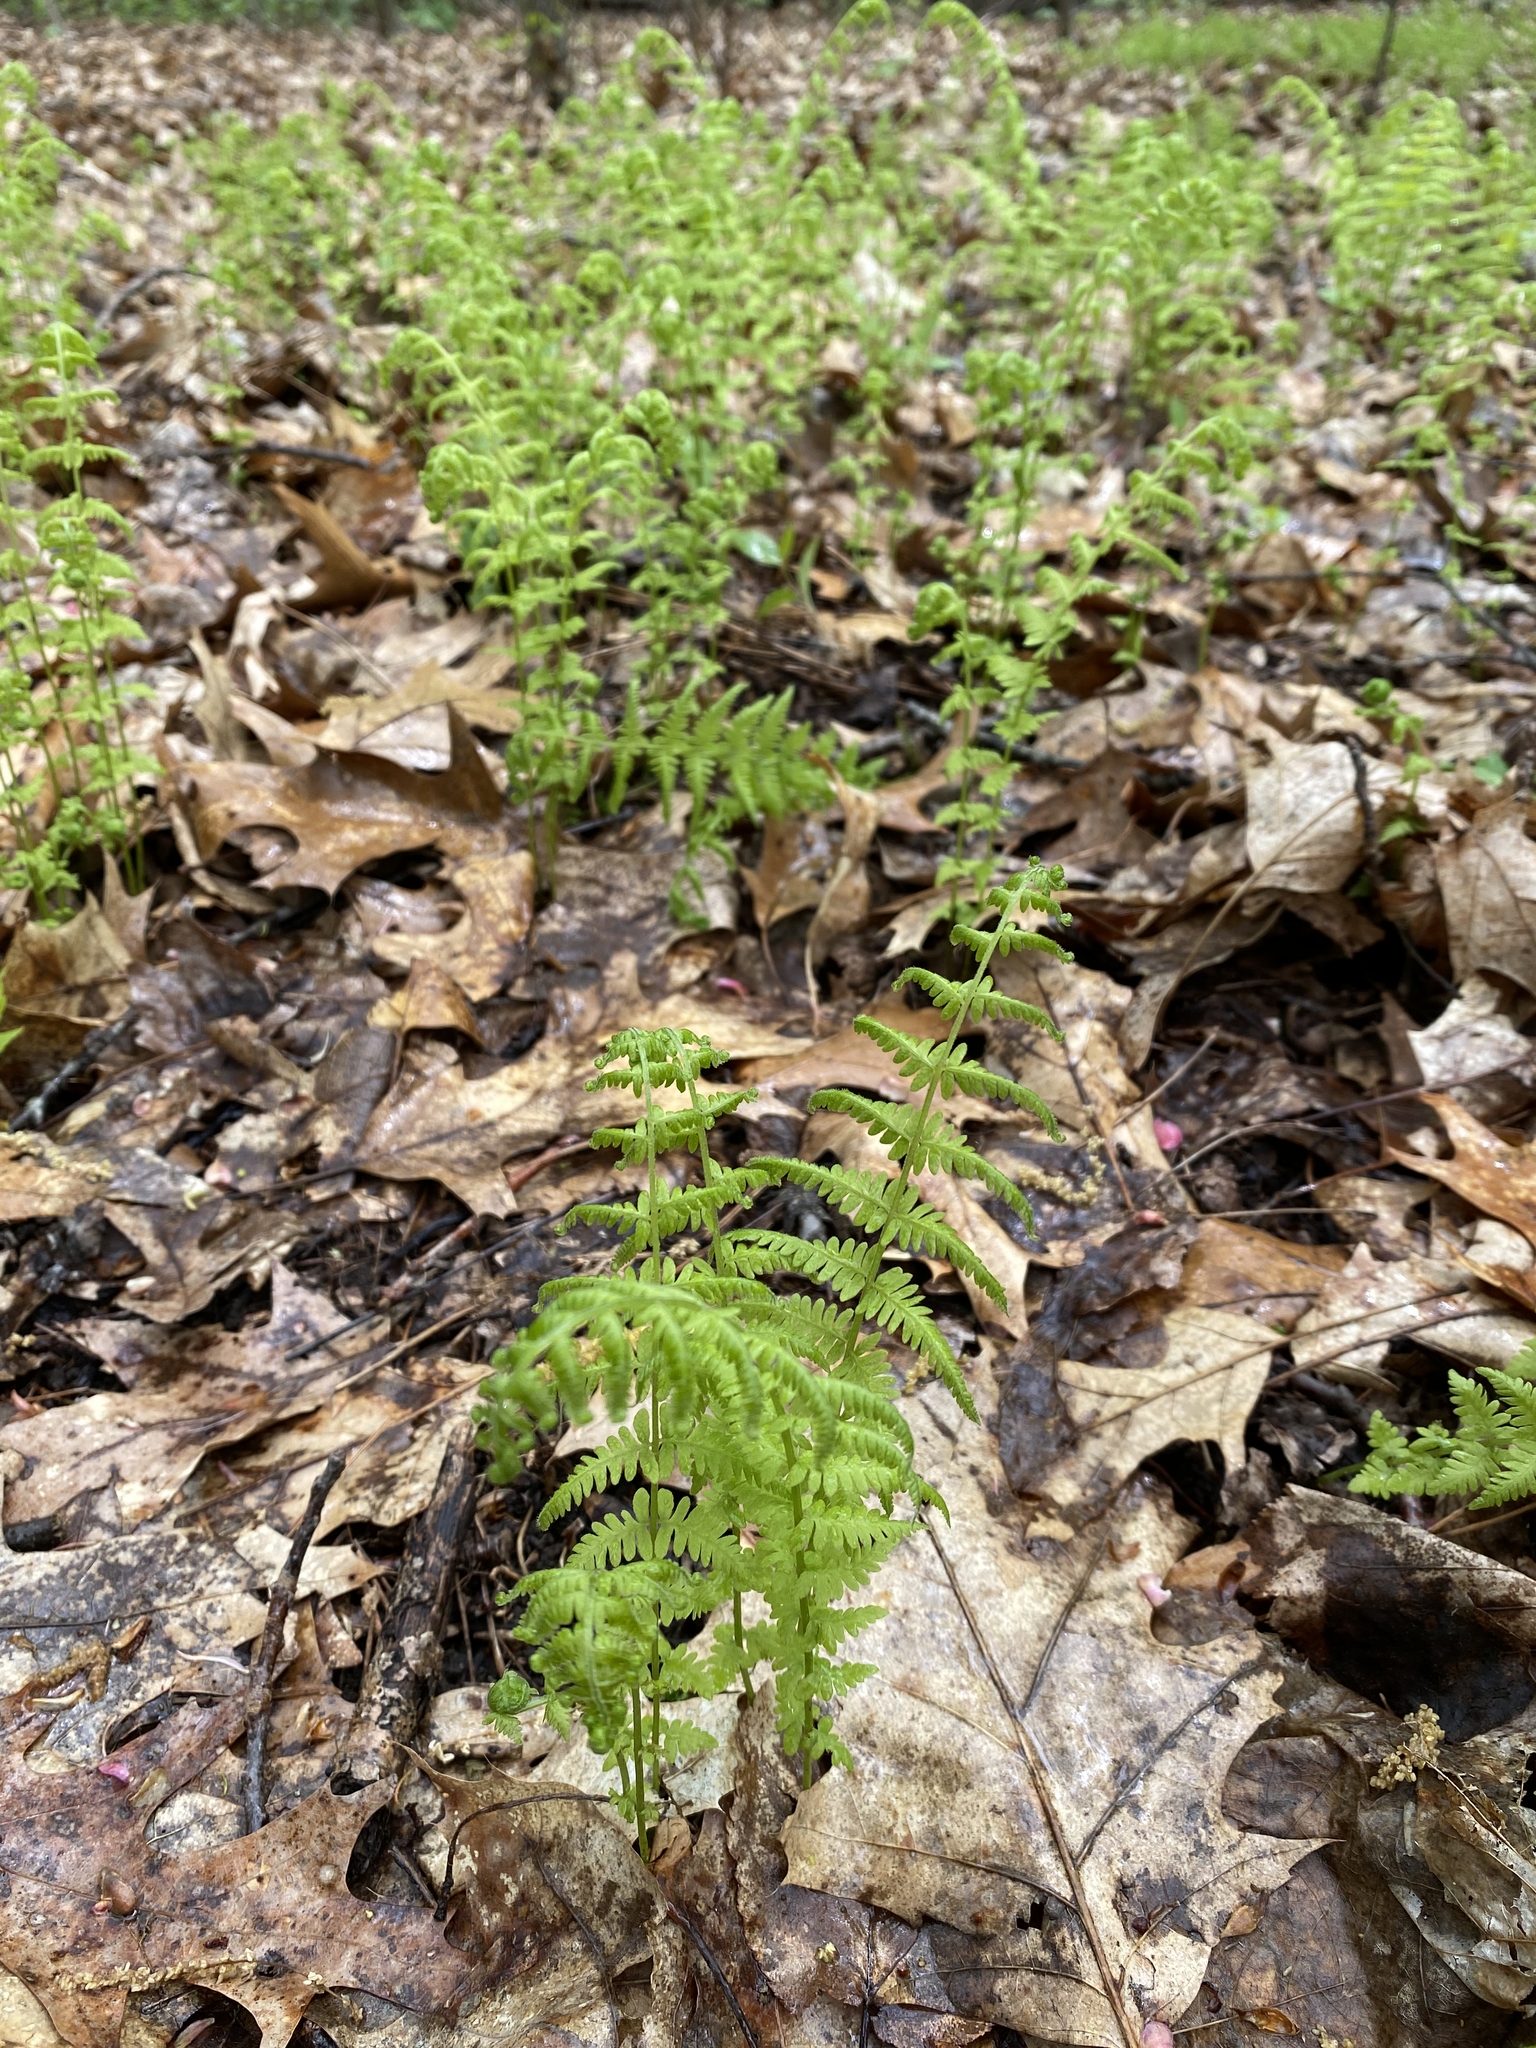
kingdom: Plantae
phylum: Tracheophyta
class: Polypodiopsida
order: Polypodiales
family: Thelypteridaceae
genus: Amauropelta
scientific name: Amauropelta noveboracensis
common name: New york fern
